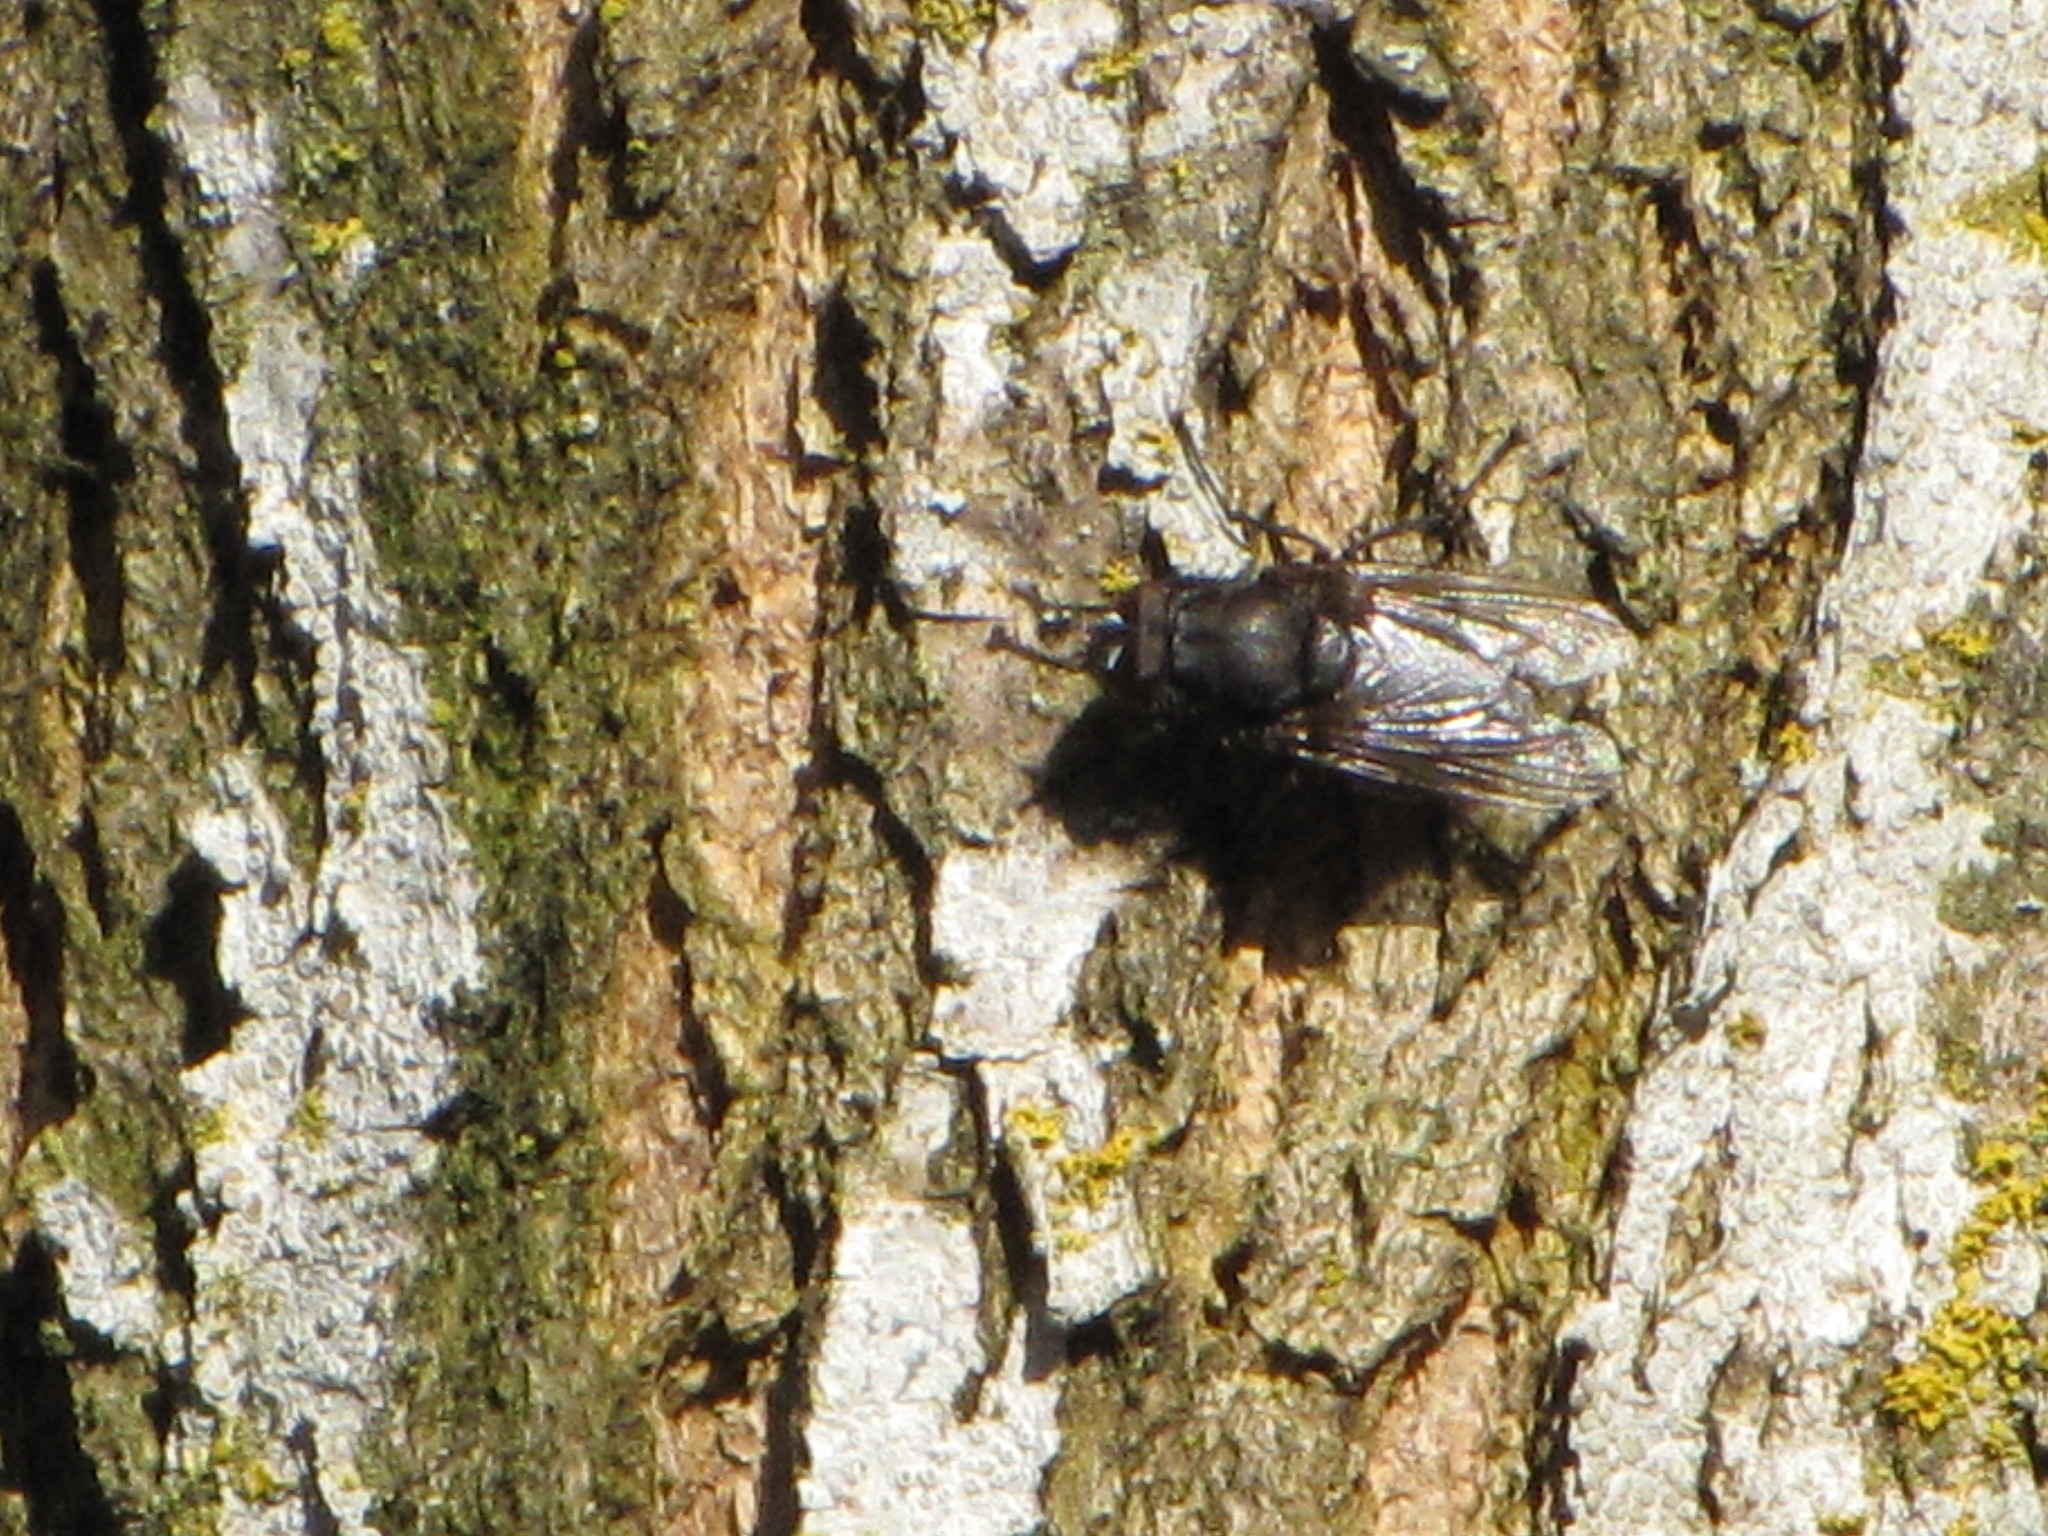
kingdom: Animalia
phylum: Arthropoda
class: Insecta
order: Diptera
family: Polleniidae
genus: Pollenia
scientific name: Pollenia vagabunda
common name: Vagabund cluster fly
